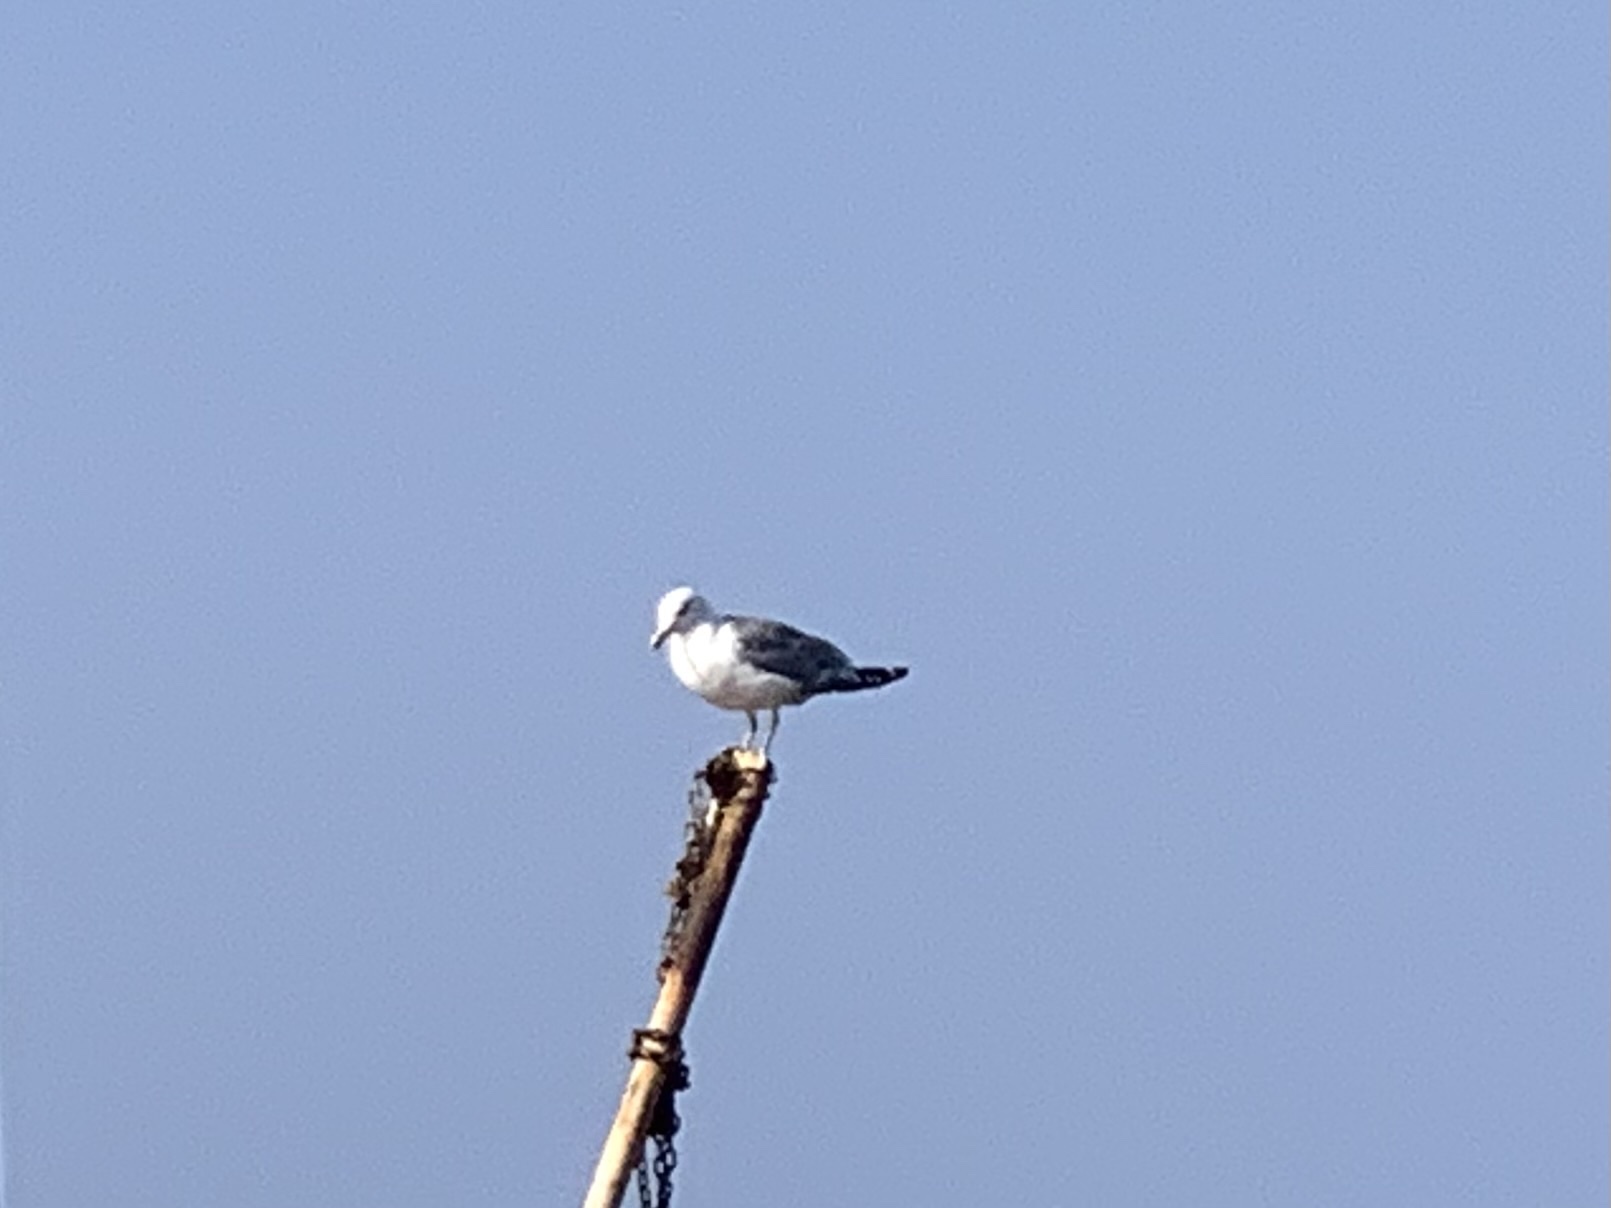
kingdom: Animalia
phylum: Chordata
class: Aves
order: Charadriiformes
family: Laridae
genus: Larus
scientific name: Larus michahellis
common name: Yellow-legged gull
